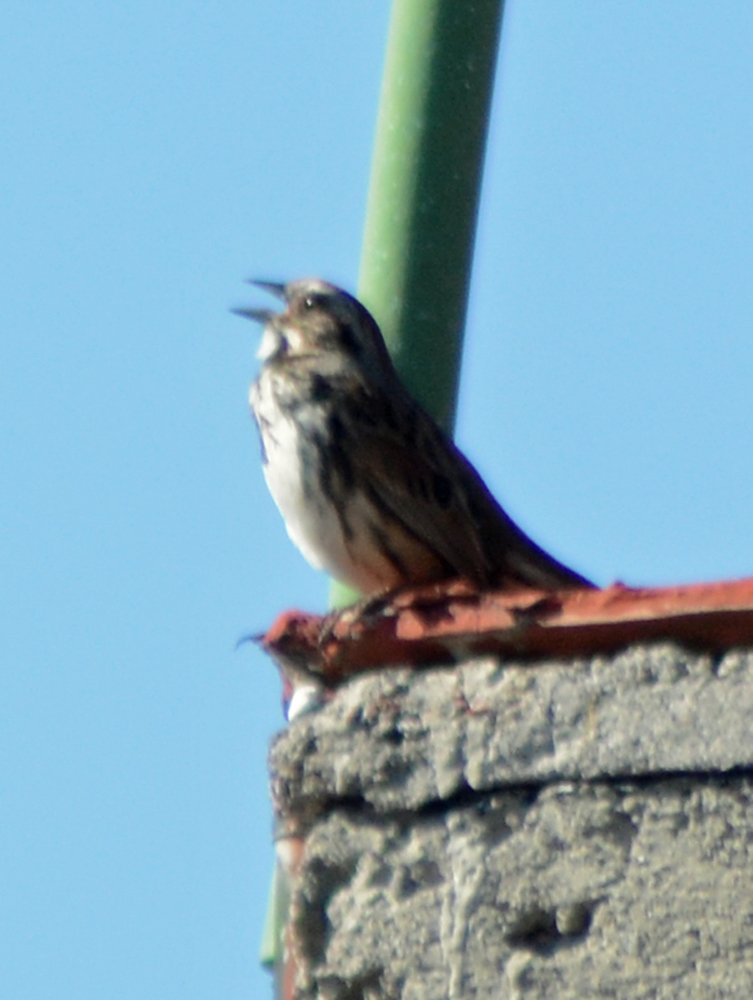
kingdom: Animalia
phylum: Chordata
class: Aves
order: Passeriformes
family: Passerellidae
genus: Melospiza
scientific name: Melospiza melodia
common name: Song sparrow
